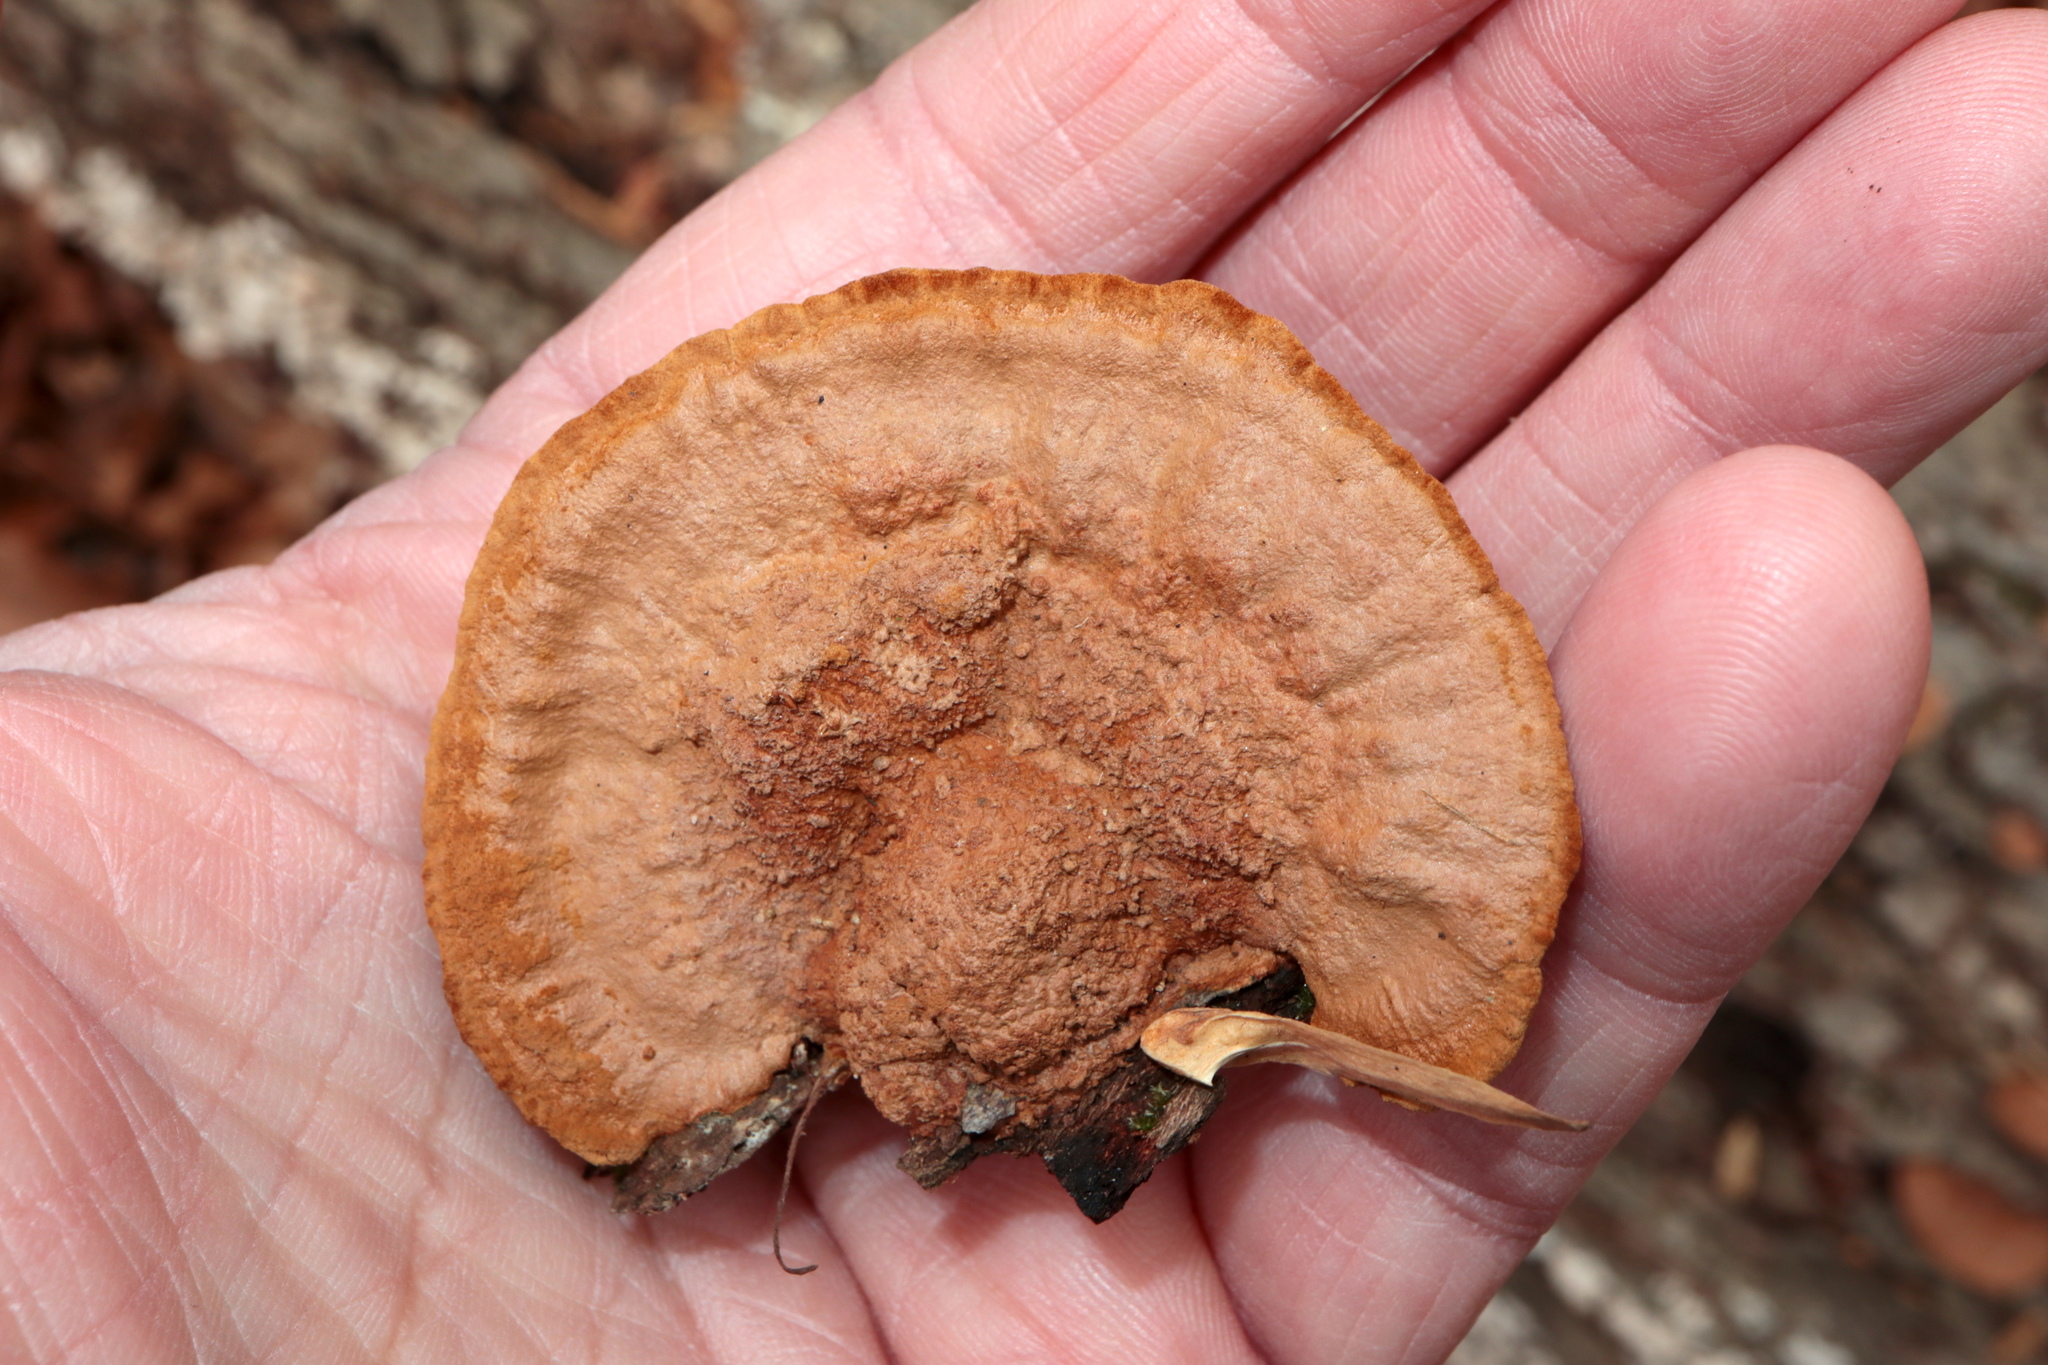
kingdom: Fungi
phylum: Basidiomycota
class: Agaricomycetes
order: Hymenochaetales
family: Hymenochaetaceae
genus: Phellinus
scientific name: Phellinus gilvus
